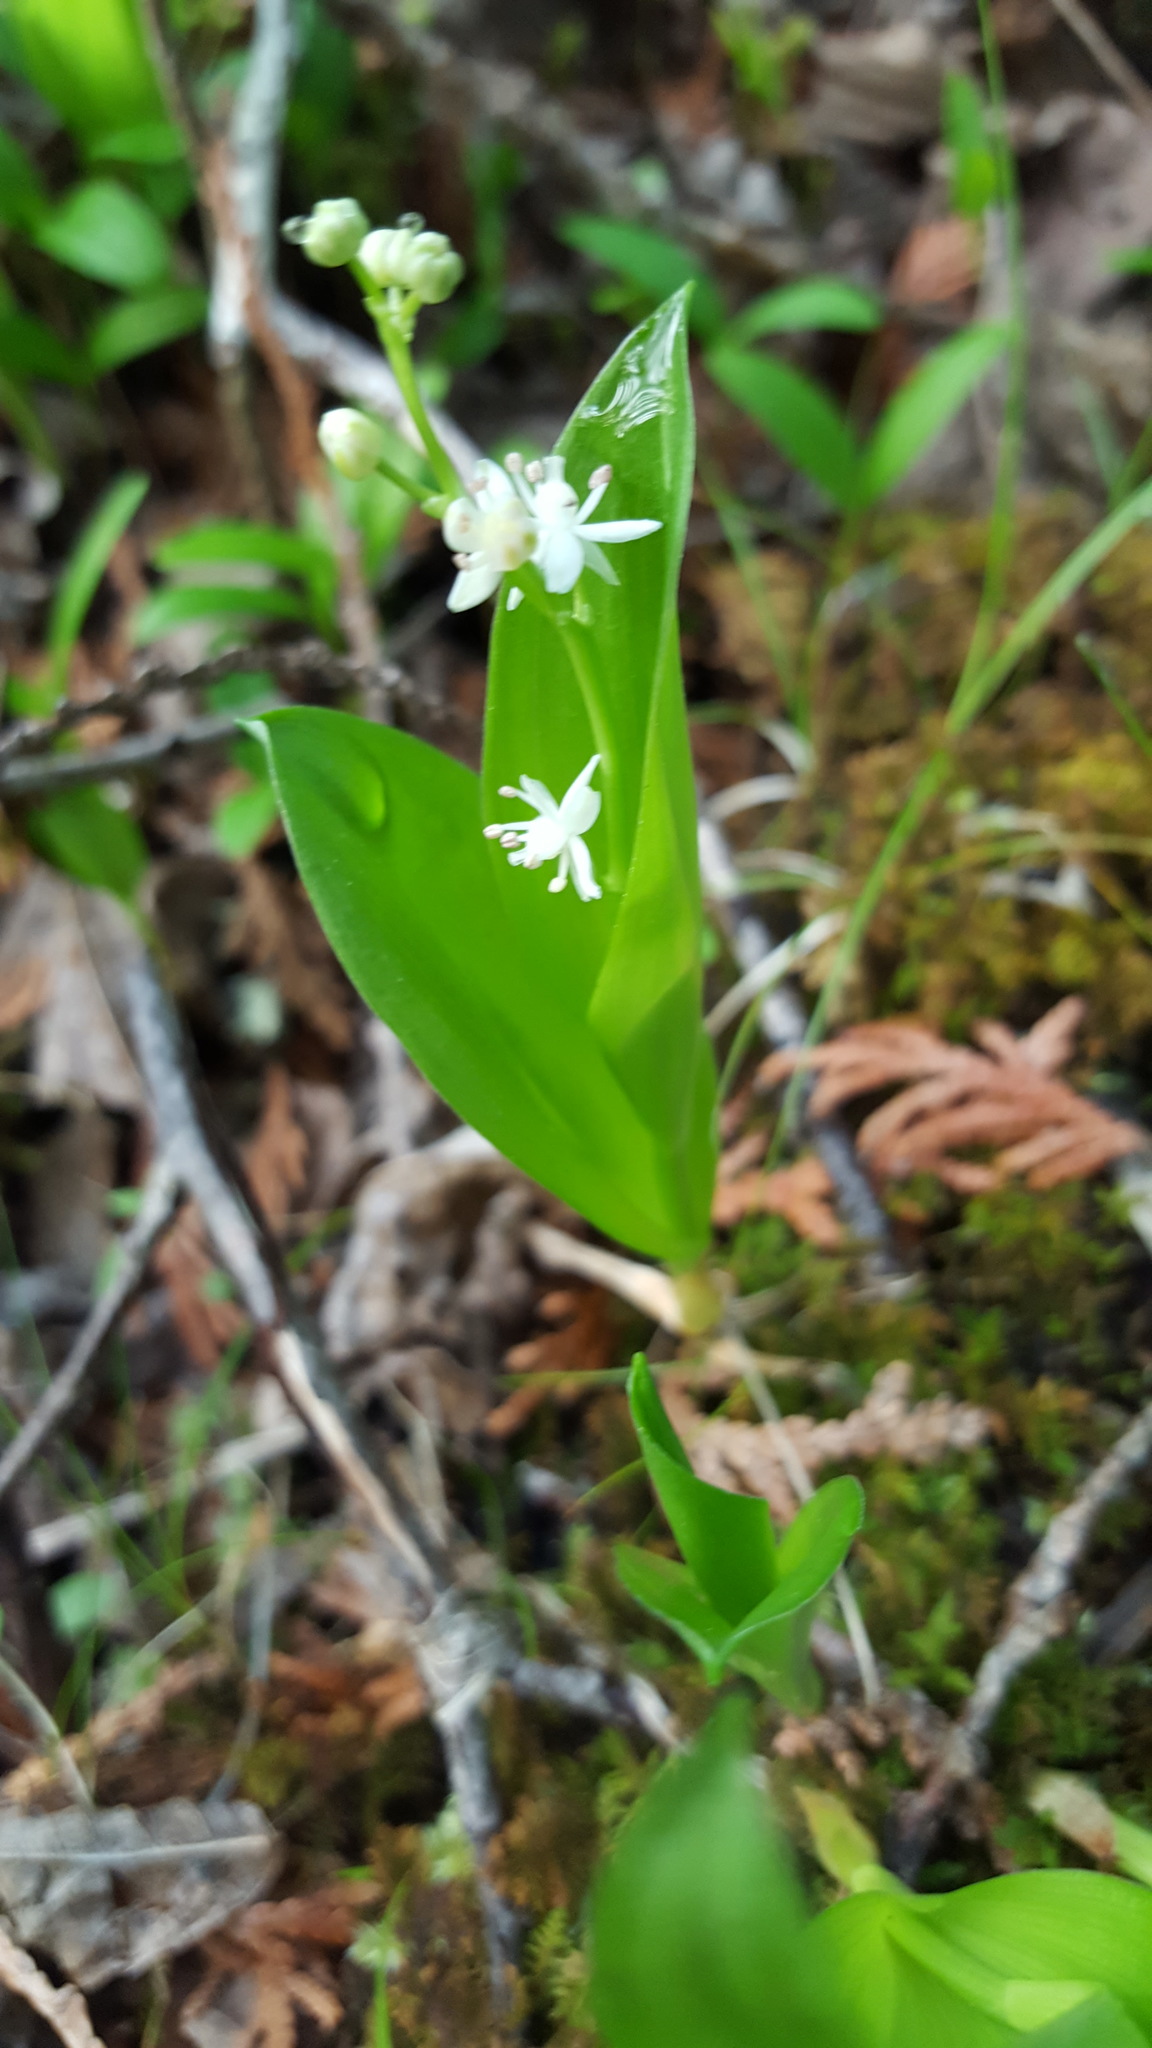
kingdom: Plantae
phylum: Tracheophyta
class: Liliopsida
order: Asparagales
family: Asparagaceae
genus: Maianthemum
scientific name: Maianthemum trifolium
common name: Swamp false solomon's seal
